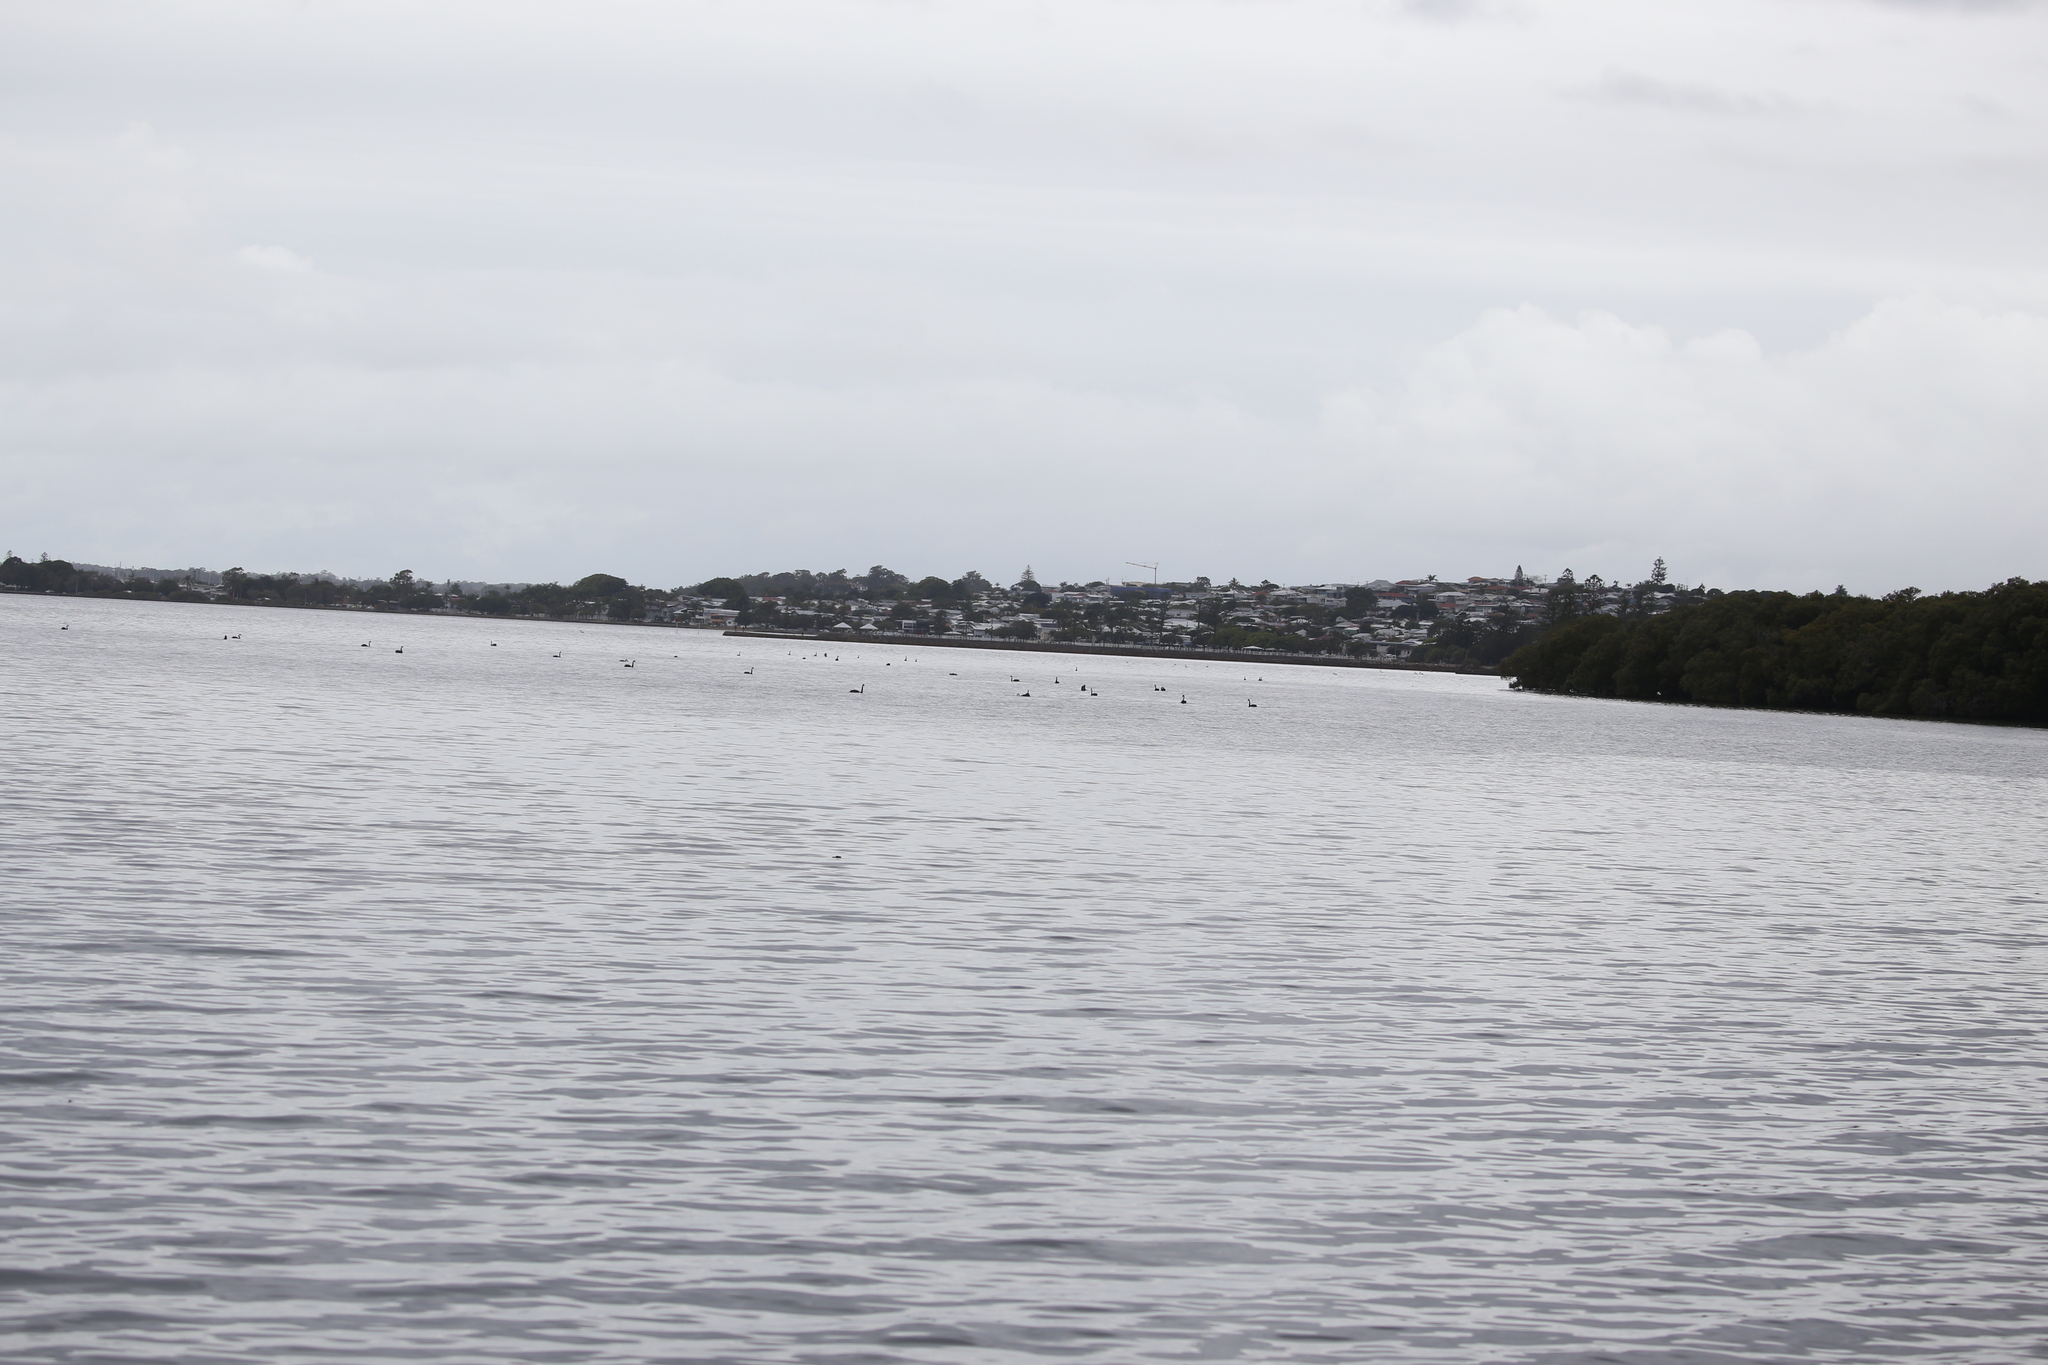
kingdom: Animalia
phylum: Chordata
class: Aves
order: Anseriformes
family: Anatidae
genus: Cygnus
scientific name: Cygnus atratus
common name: Black swan
